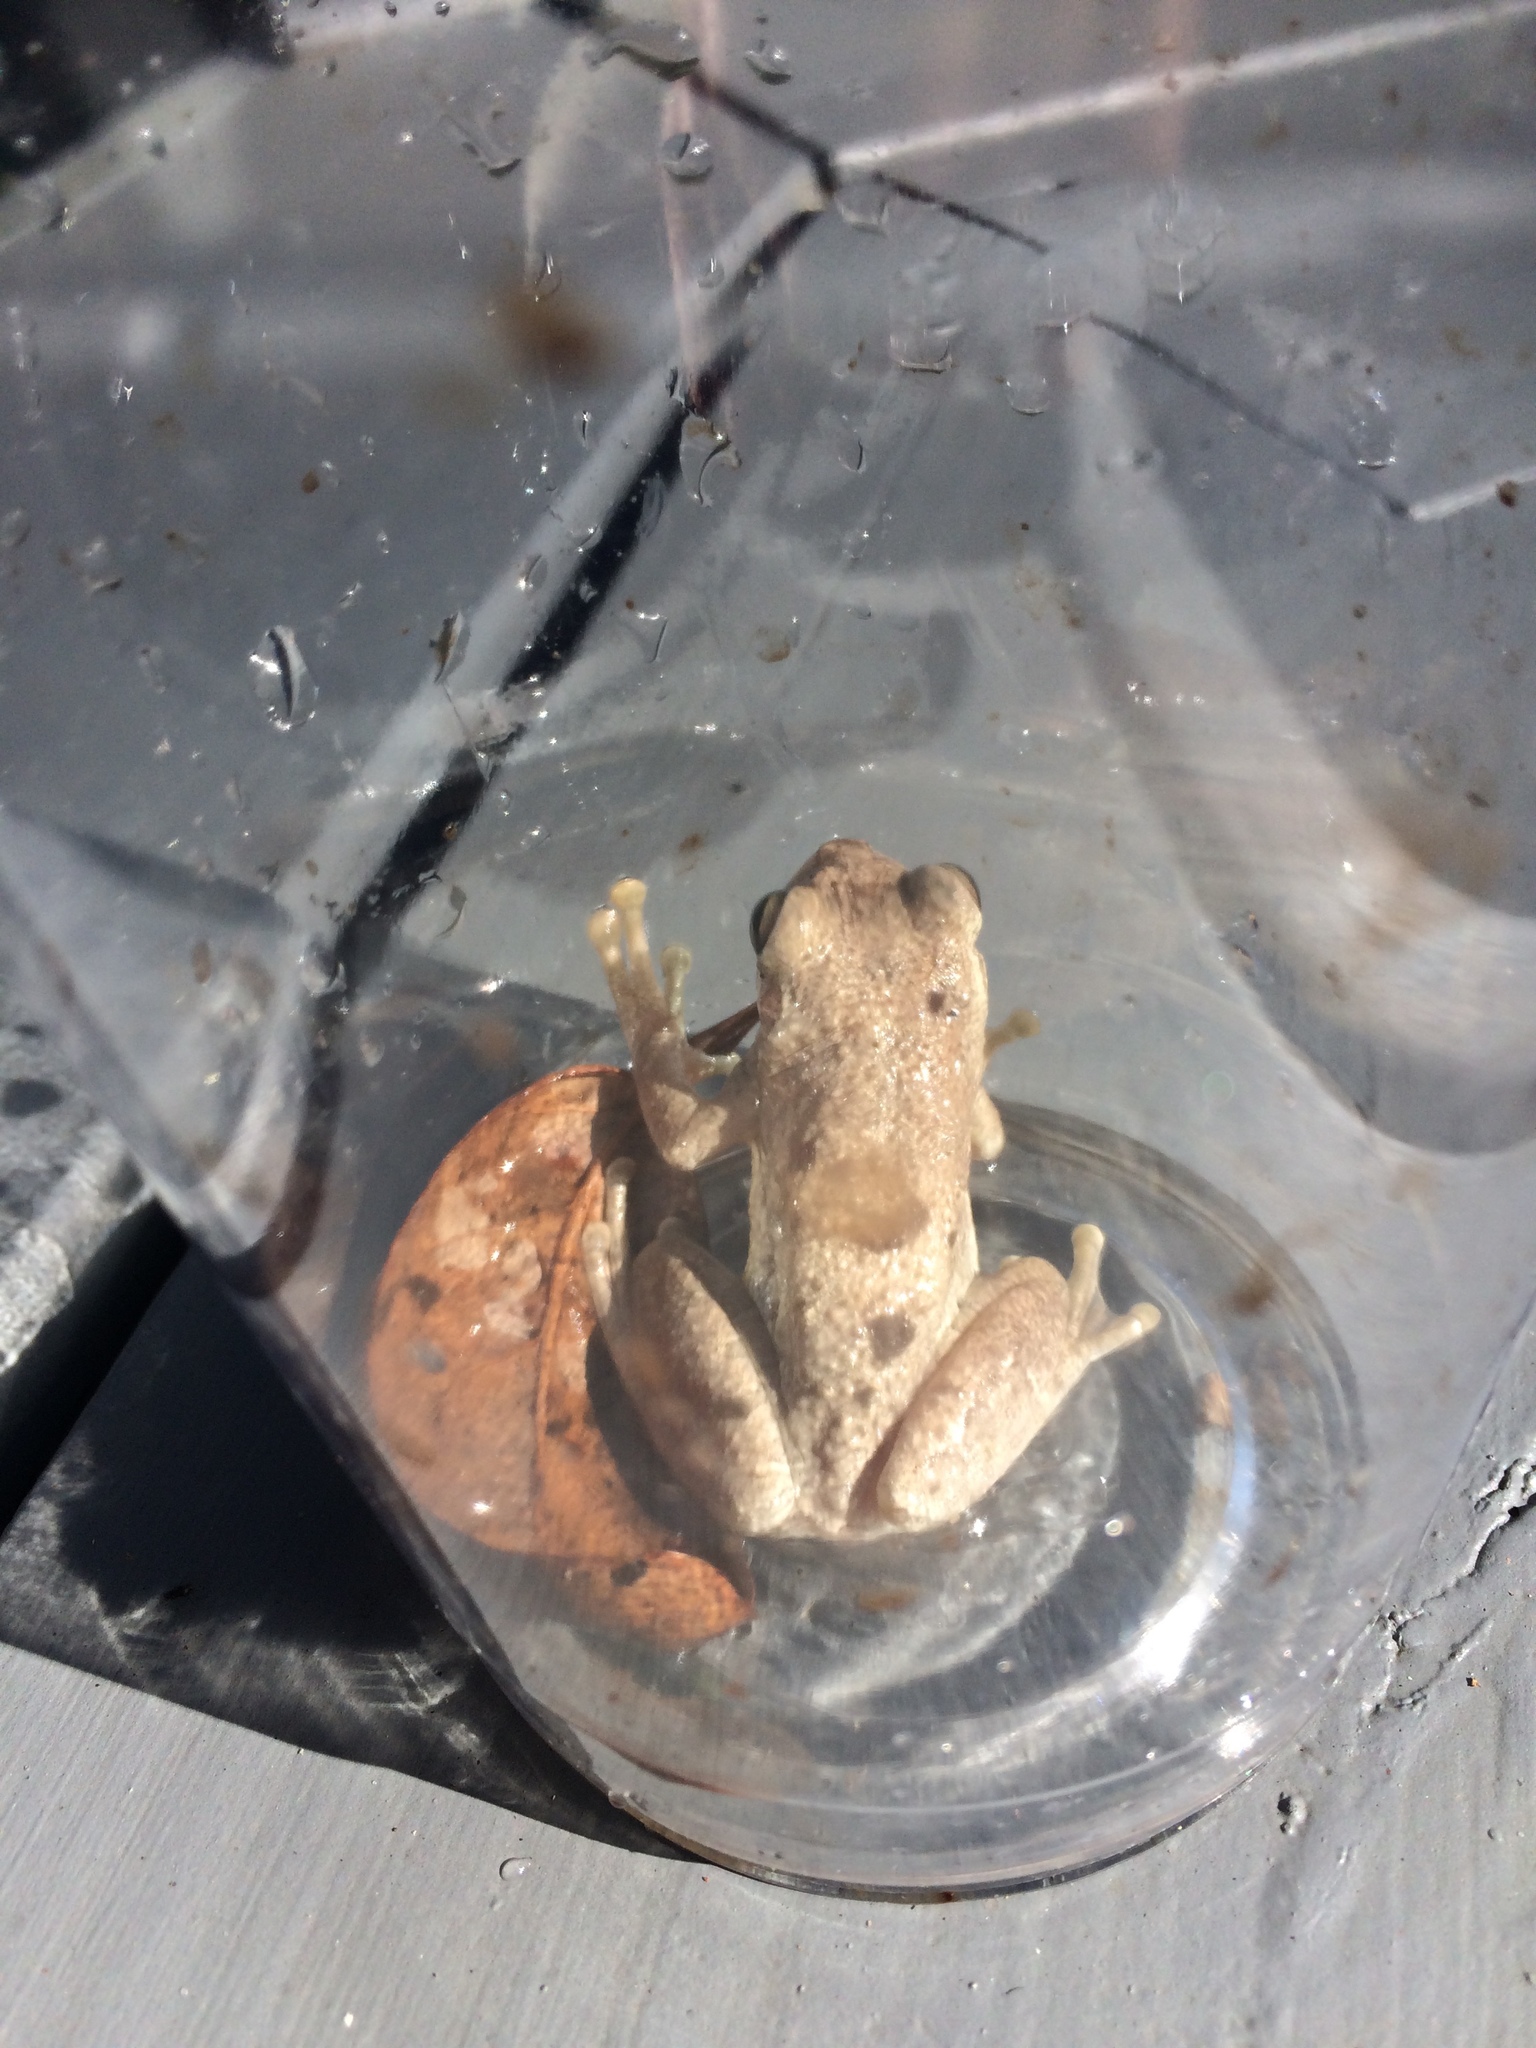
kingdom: Animalia
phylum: Chordata
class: Amphibia
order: Anura
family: Hylidae
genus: Osteopilus
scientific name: Osteopilus septentrionalis
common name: Cuban treefrog
